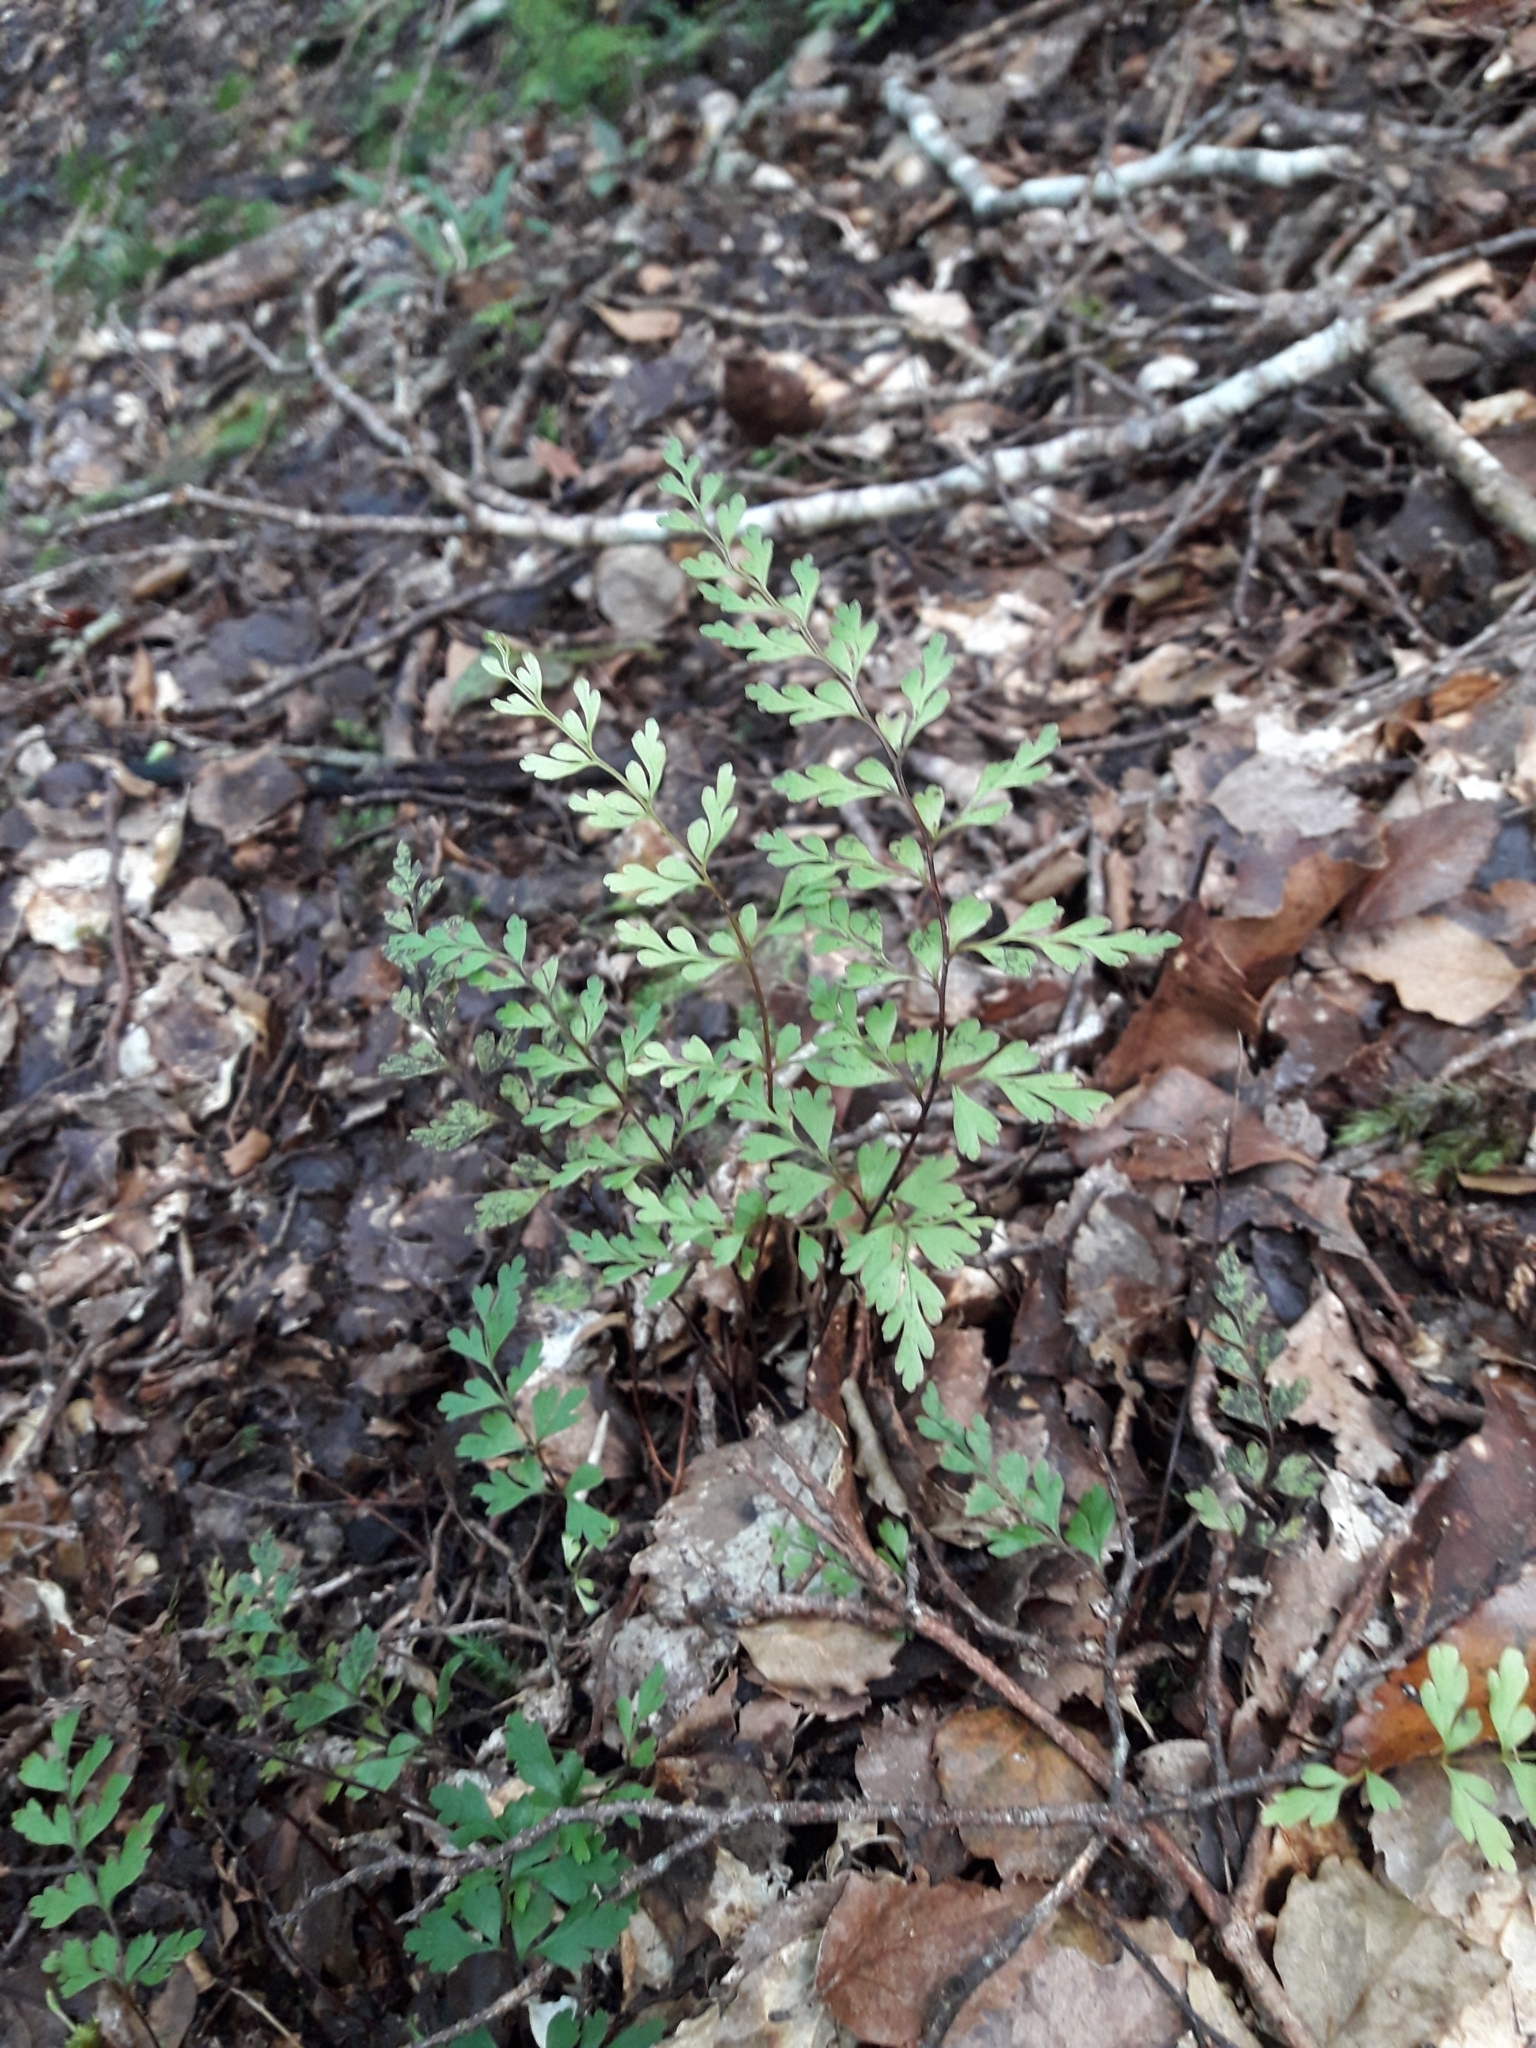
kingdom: Plantae
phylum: Tracheophyta
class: Polypodiopsida
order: Polypodiales
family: Lindsaeaceae
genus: Lindsaea
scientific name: Lindsaea trichomanoides
